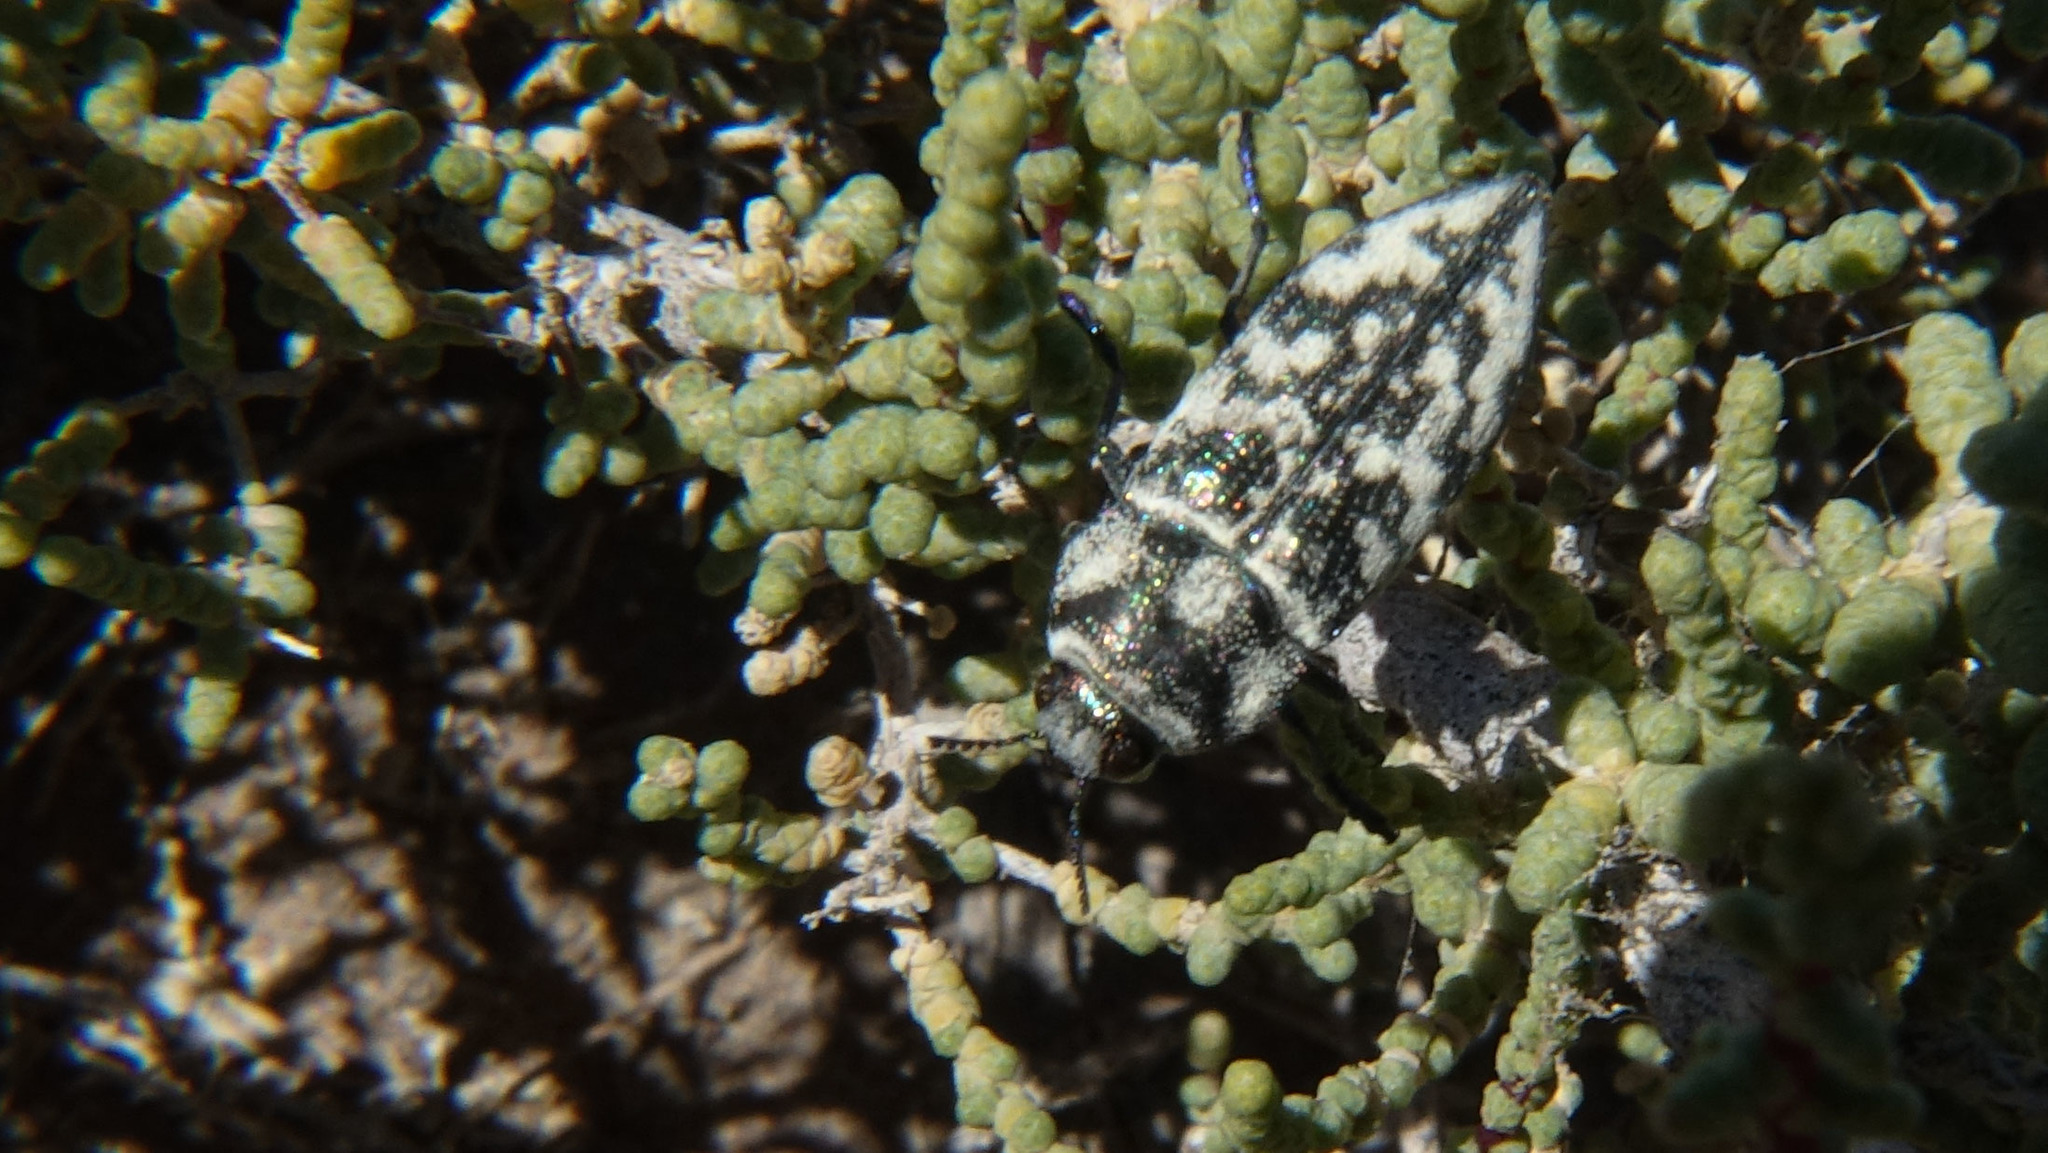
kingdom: Animalia
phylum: Arthropoda
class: Insecta
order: Coleoptera
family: Buprestidae
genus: Achardella
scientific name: Achardella americana
